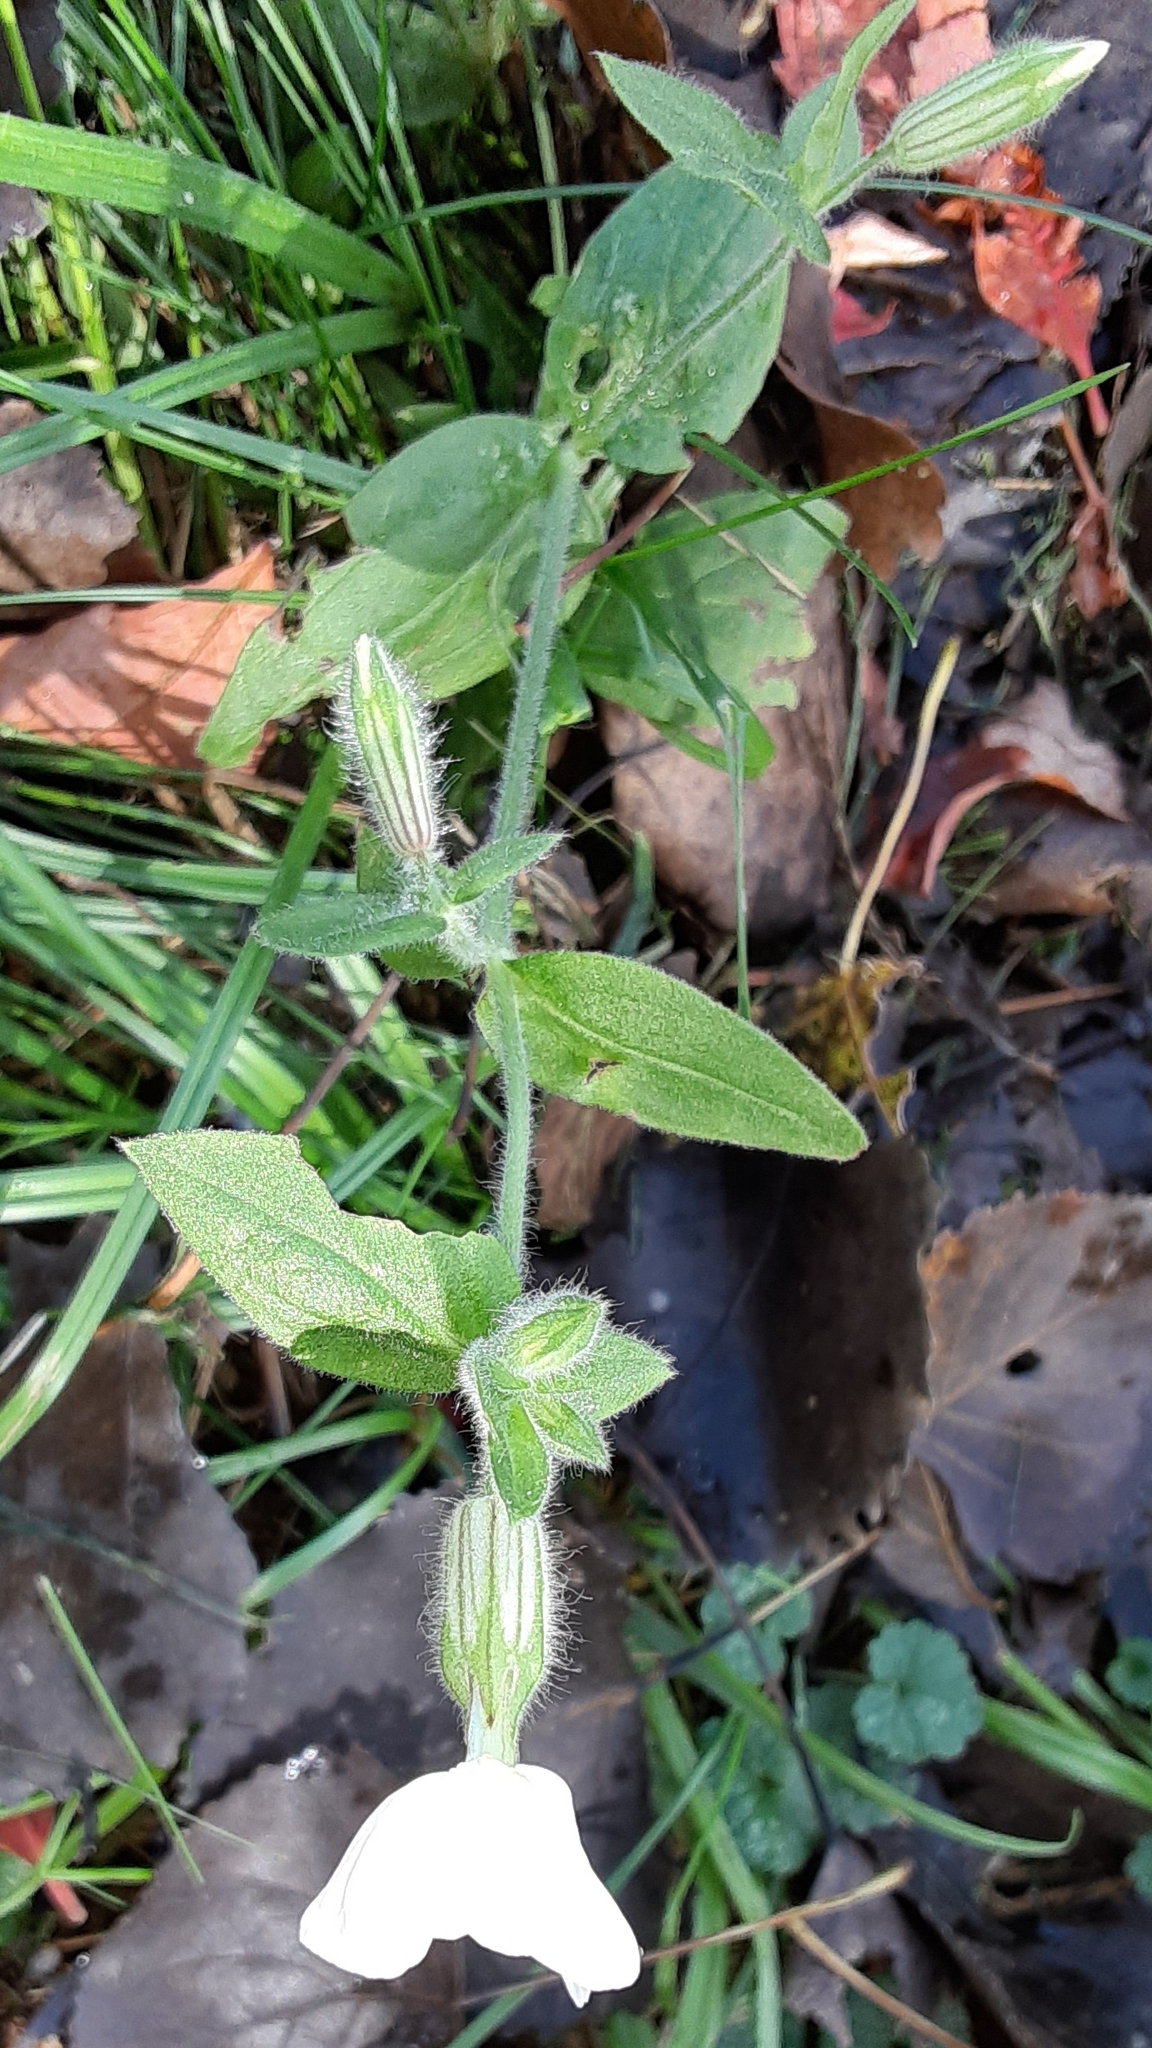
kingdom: Plantae
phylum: Tracheophyta
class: Magnoliopsida
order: Caryophyllales
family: Caryophyllaceae
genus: Silene
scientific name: Silene latifolia
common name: White campion
